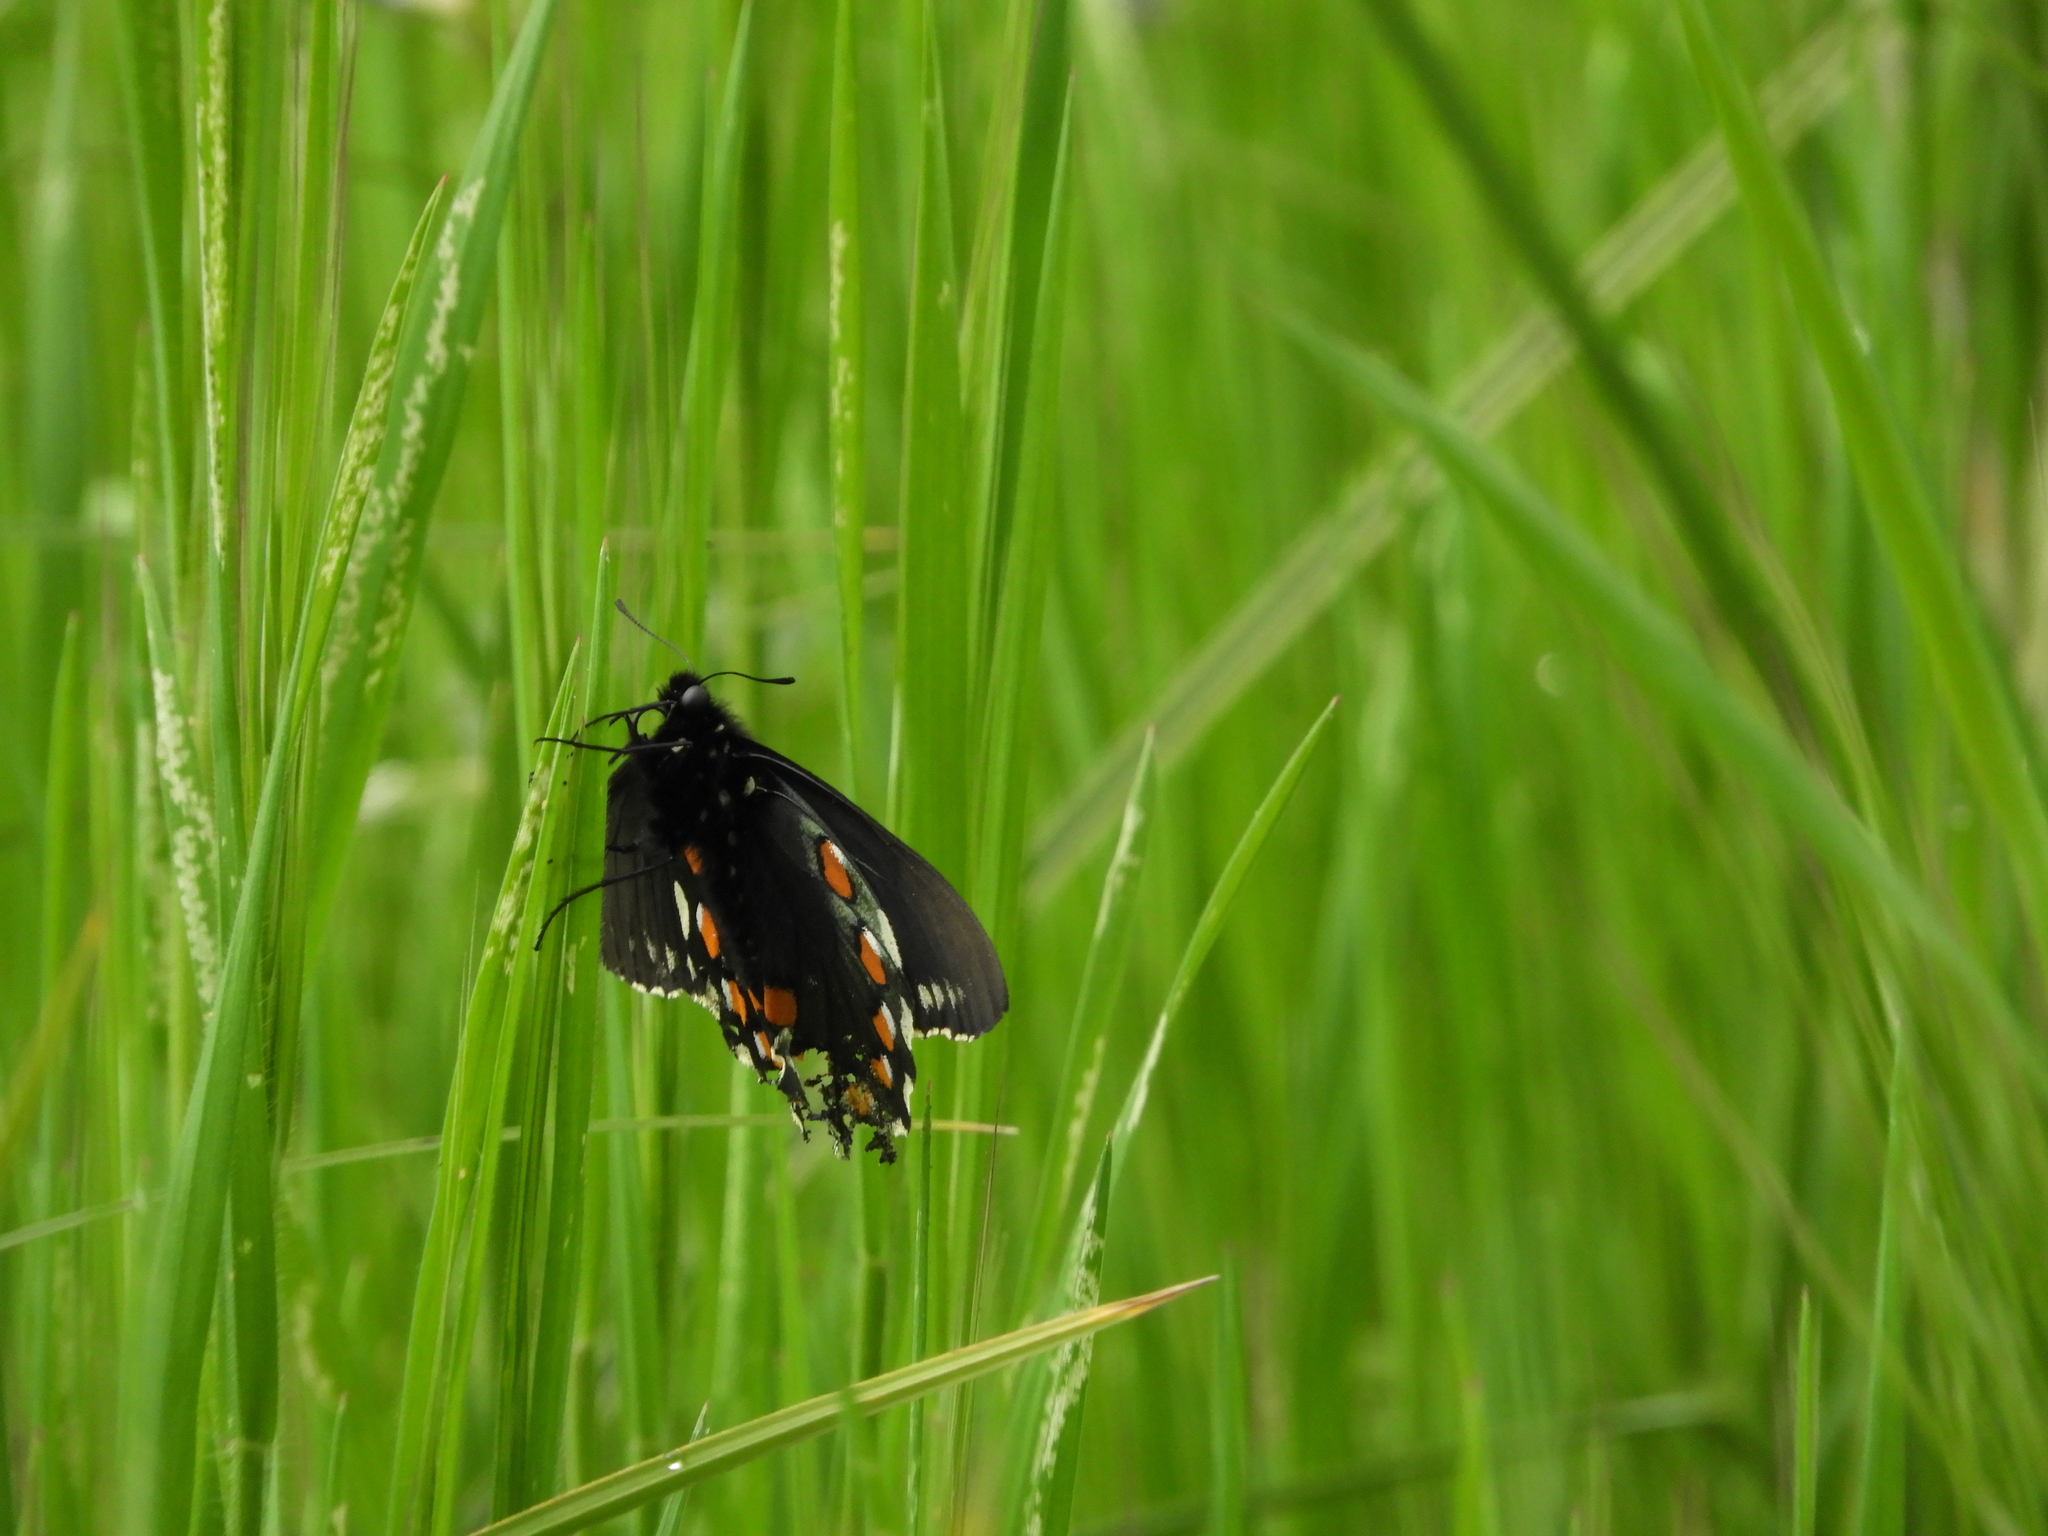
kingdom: Animalia
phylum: Arthropoda
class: Insecta
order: Lepidoptera
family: Papilionidae
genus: Battus
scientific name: Battus philenor
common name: Pipevine swallowtail
